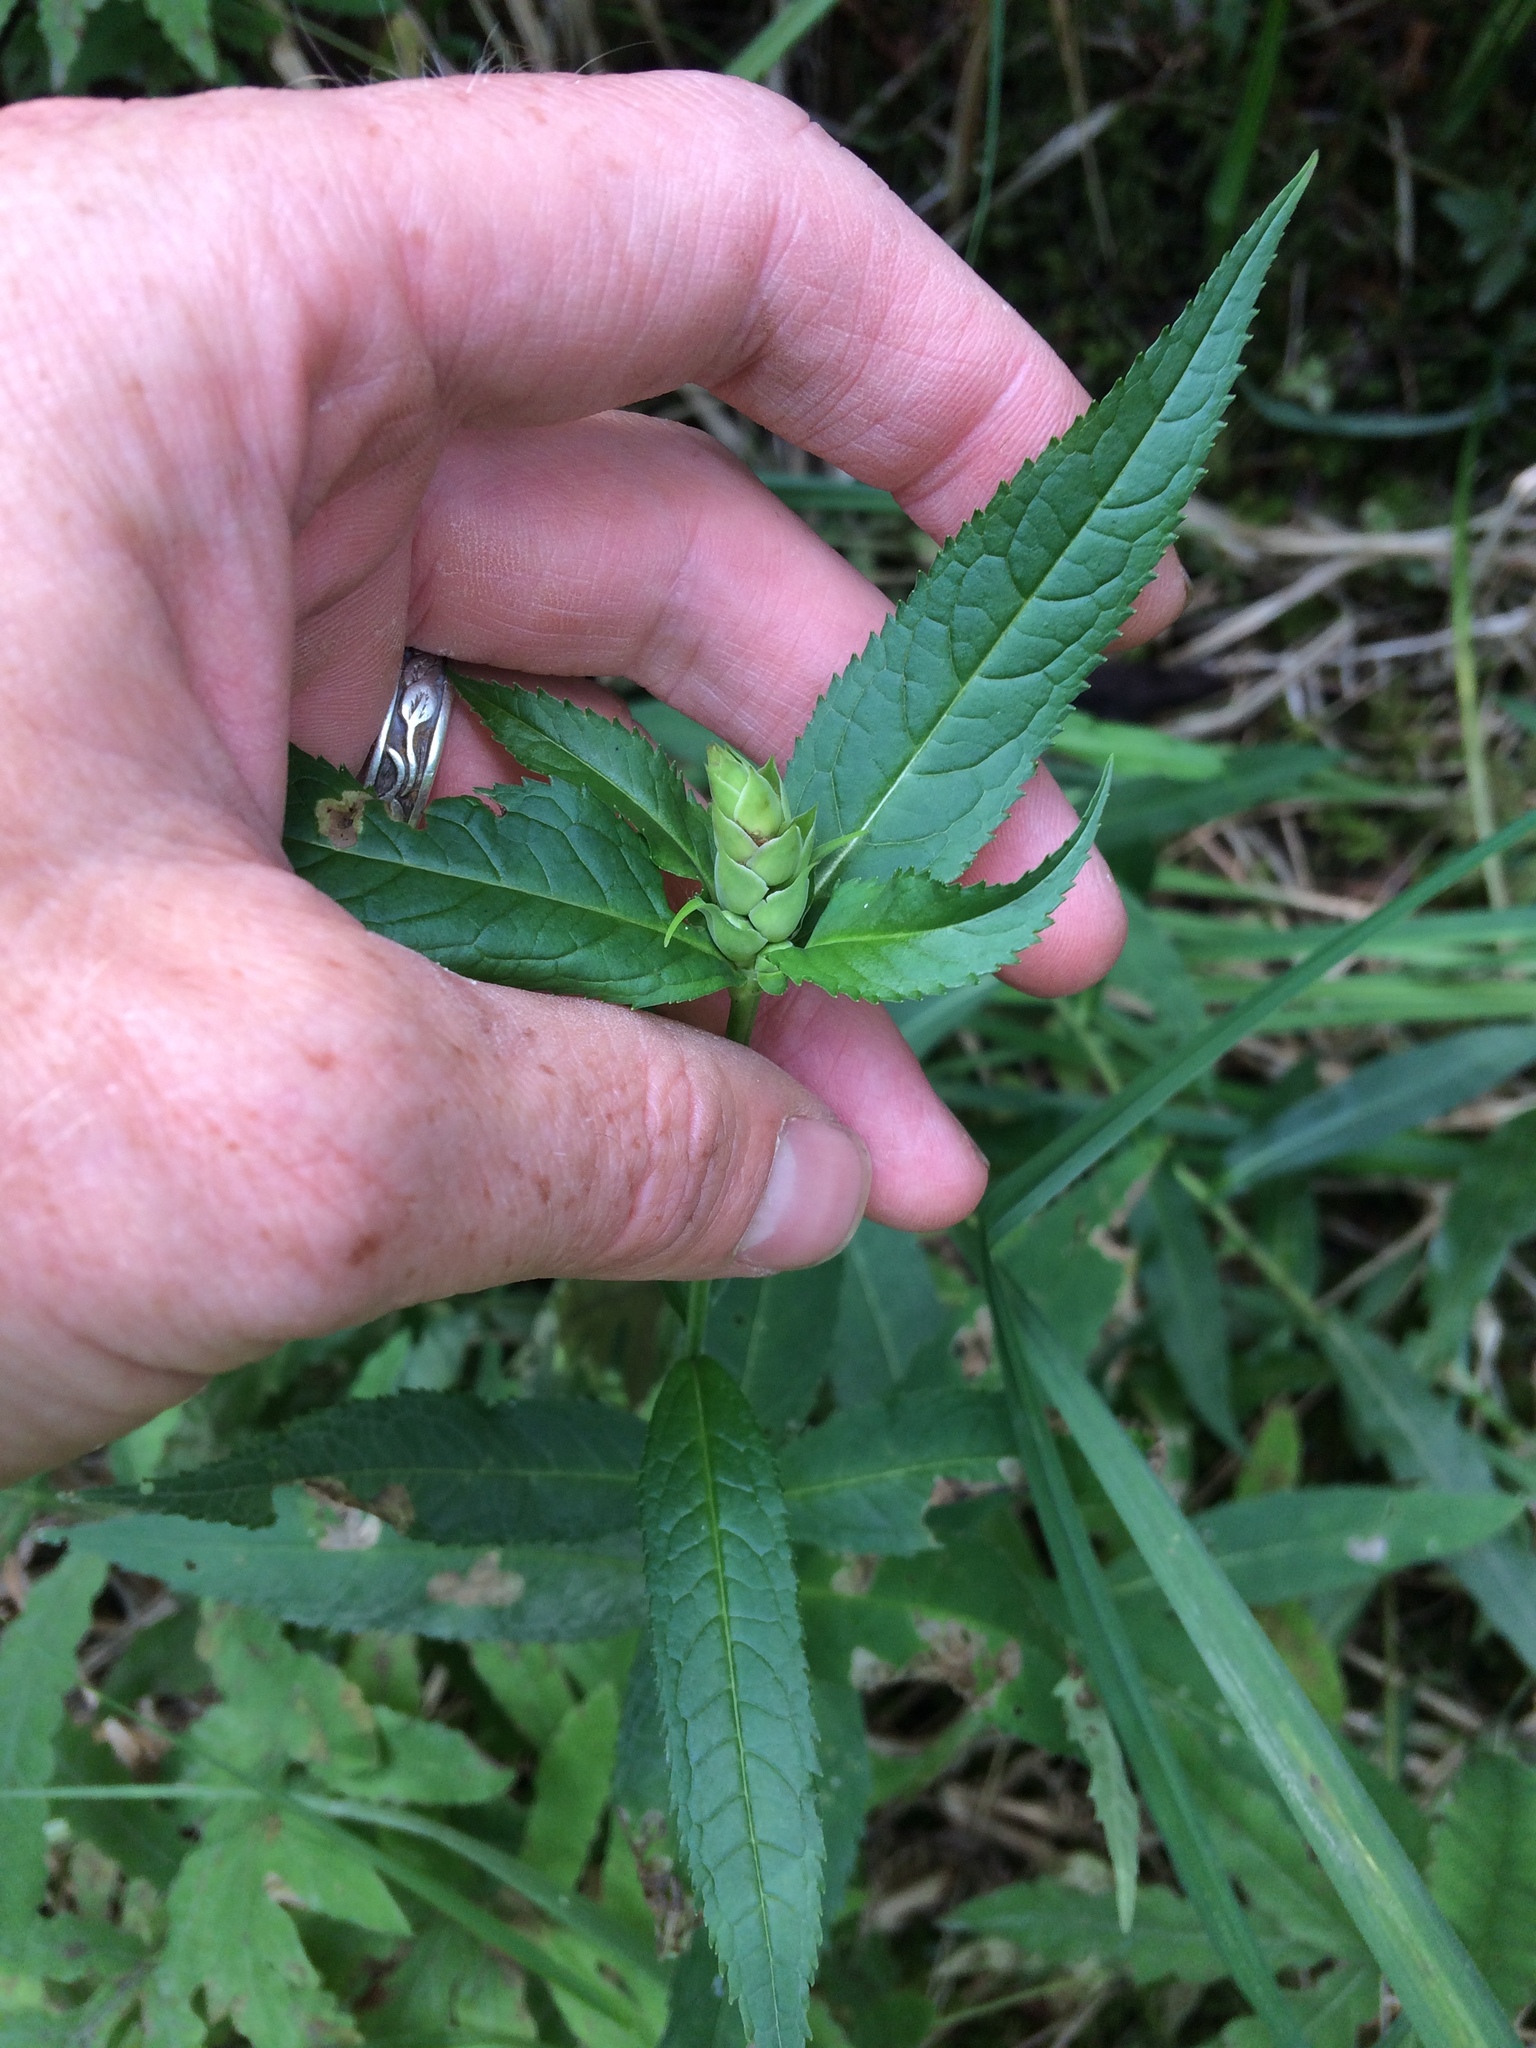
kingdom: Plantae
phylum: Tracheophyta
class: Magnoliopsida
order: Lamiales
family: Plantaginaceae
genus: Chelone
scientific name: Chelone glabra
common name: Snakehead
